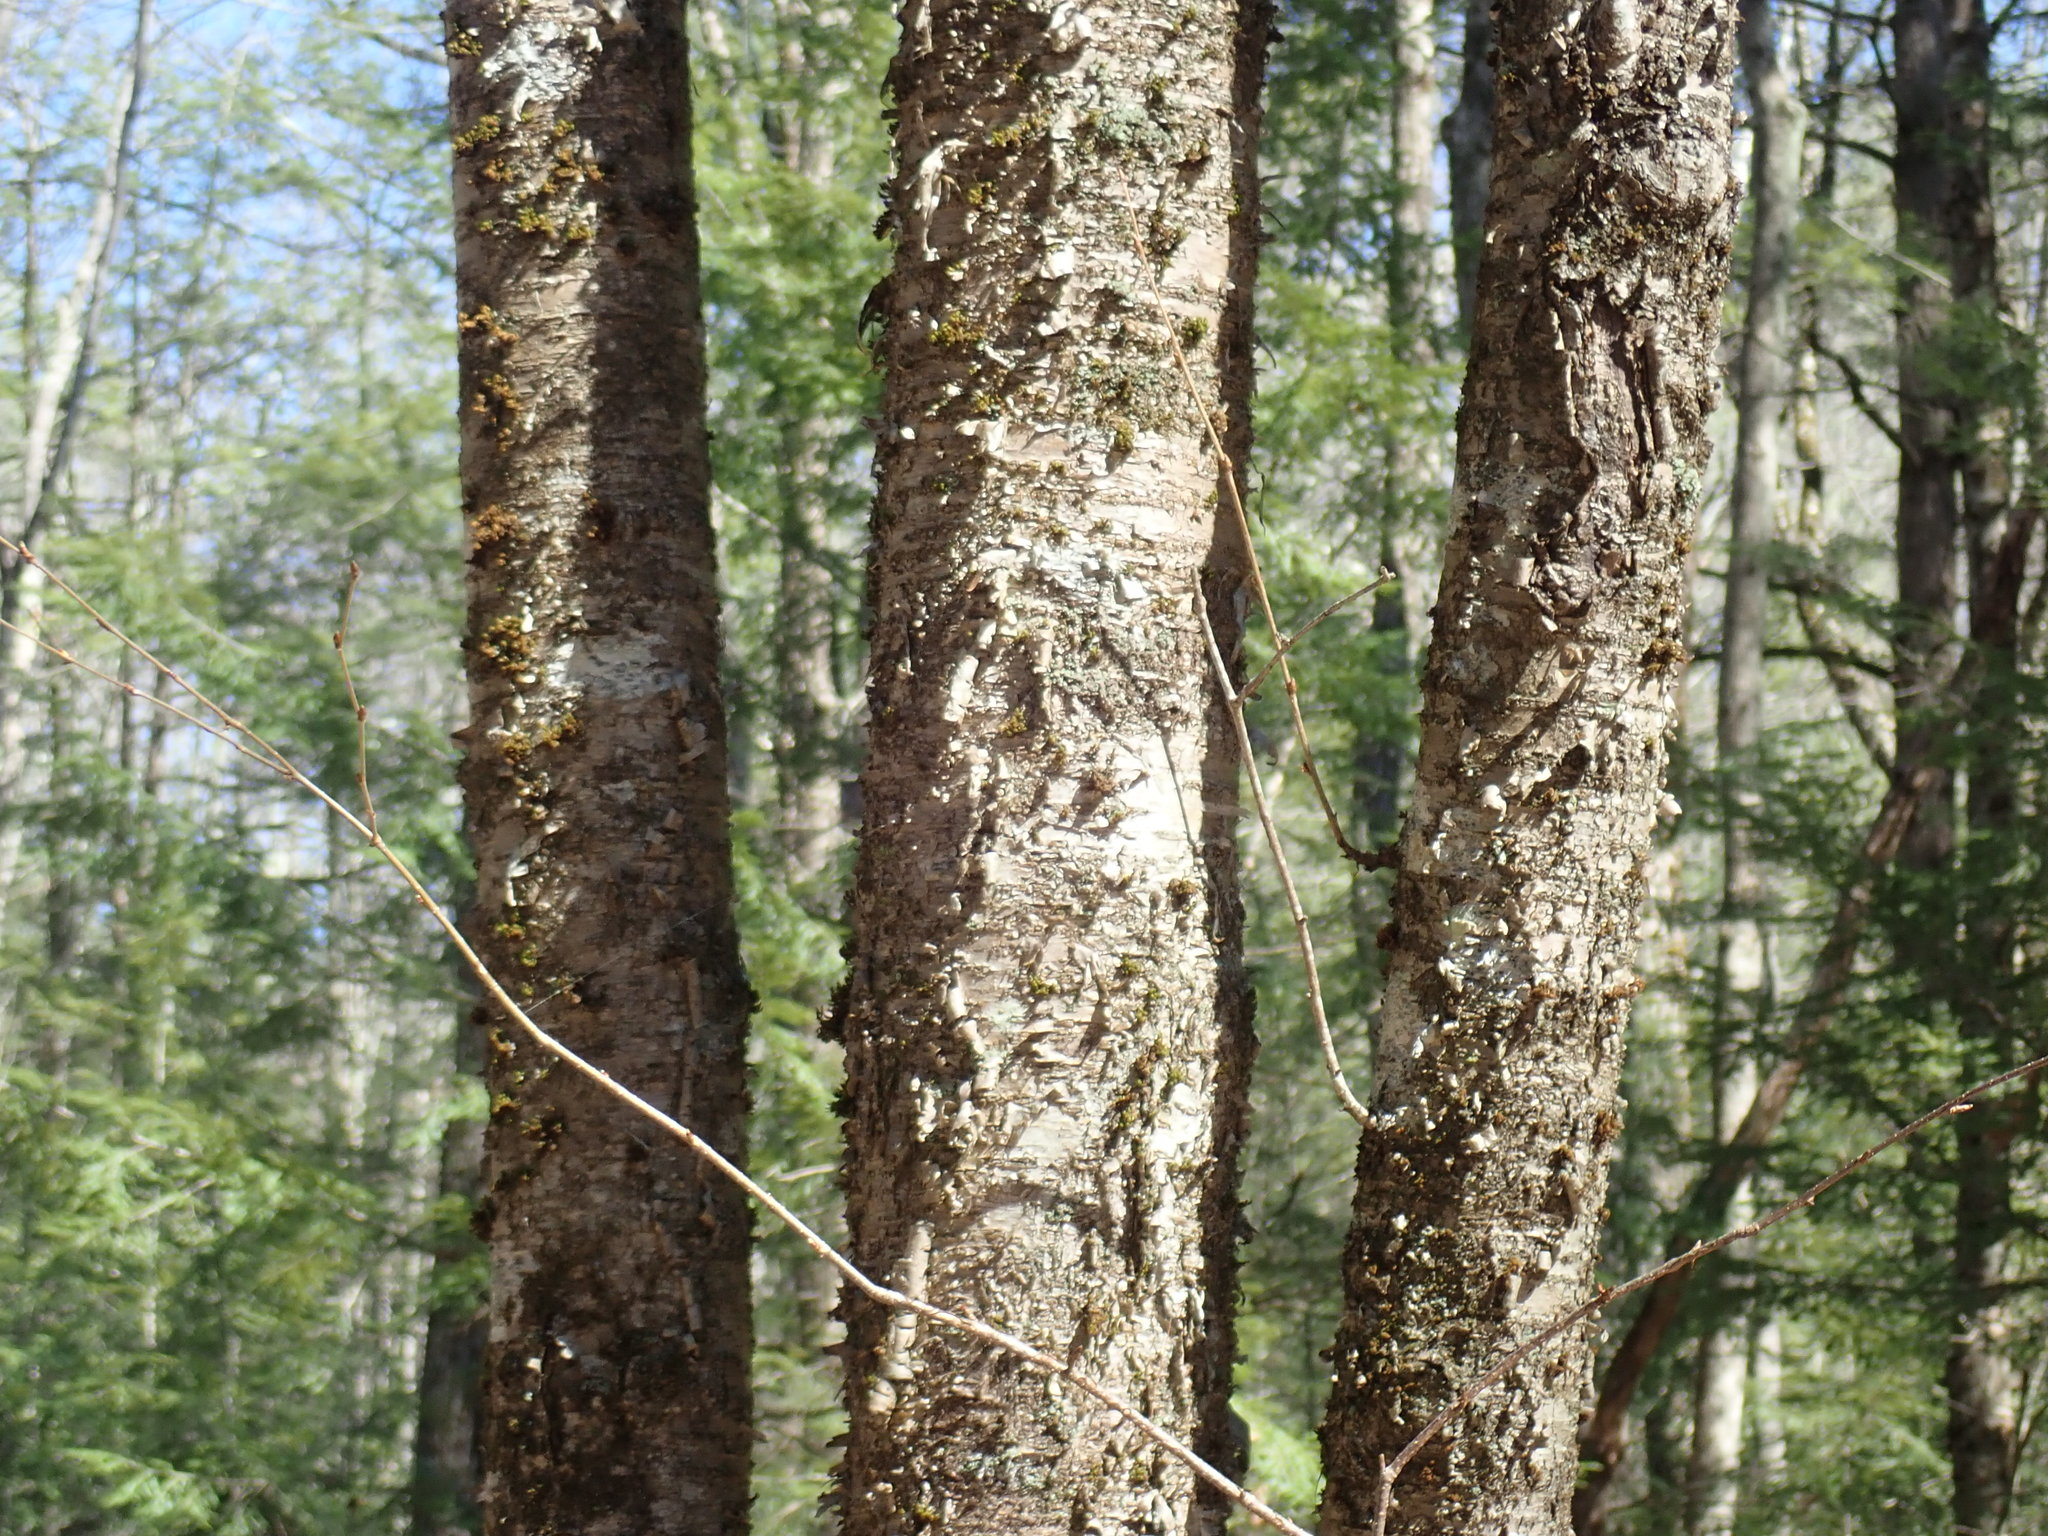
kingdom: Plantae
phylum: Tracheophyta
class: Magnoliopsida
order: Fagales
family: Betulaceae
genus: Betula
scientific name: Betula alleghaniensis
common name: Yellow birch
